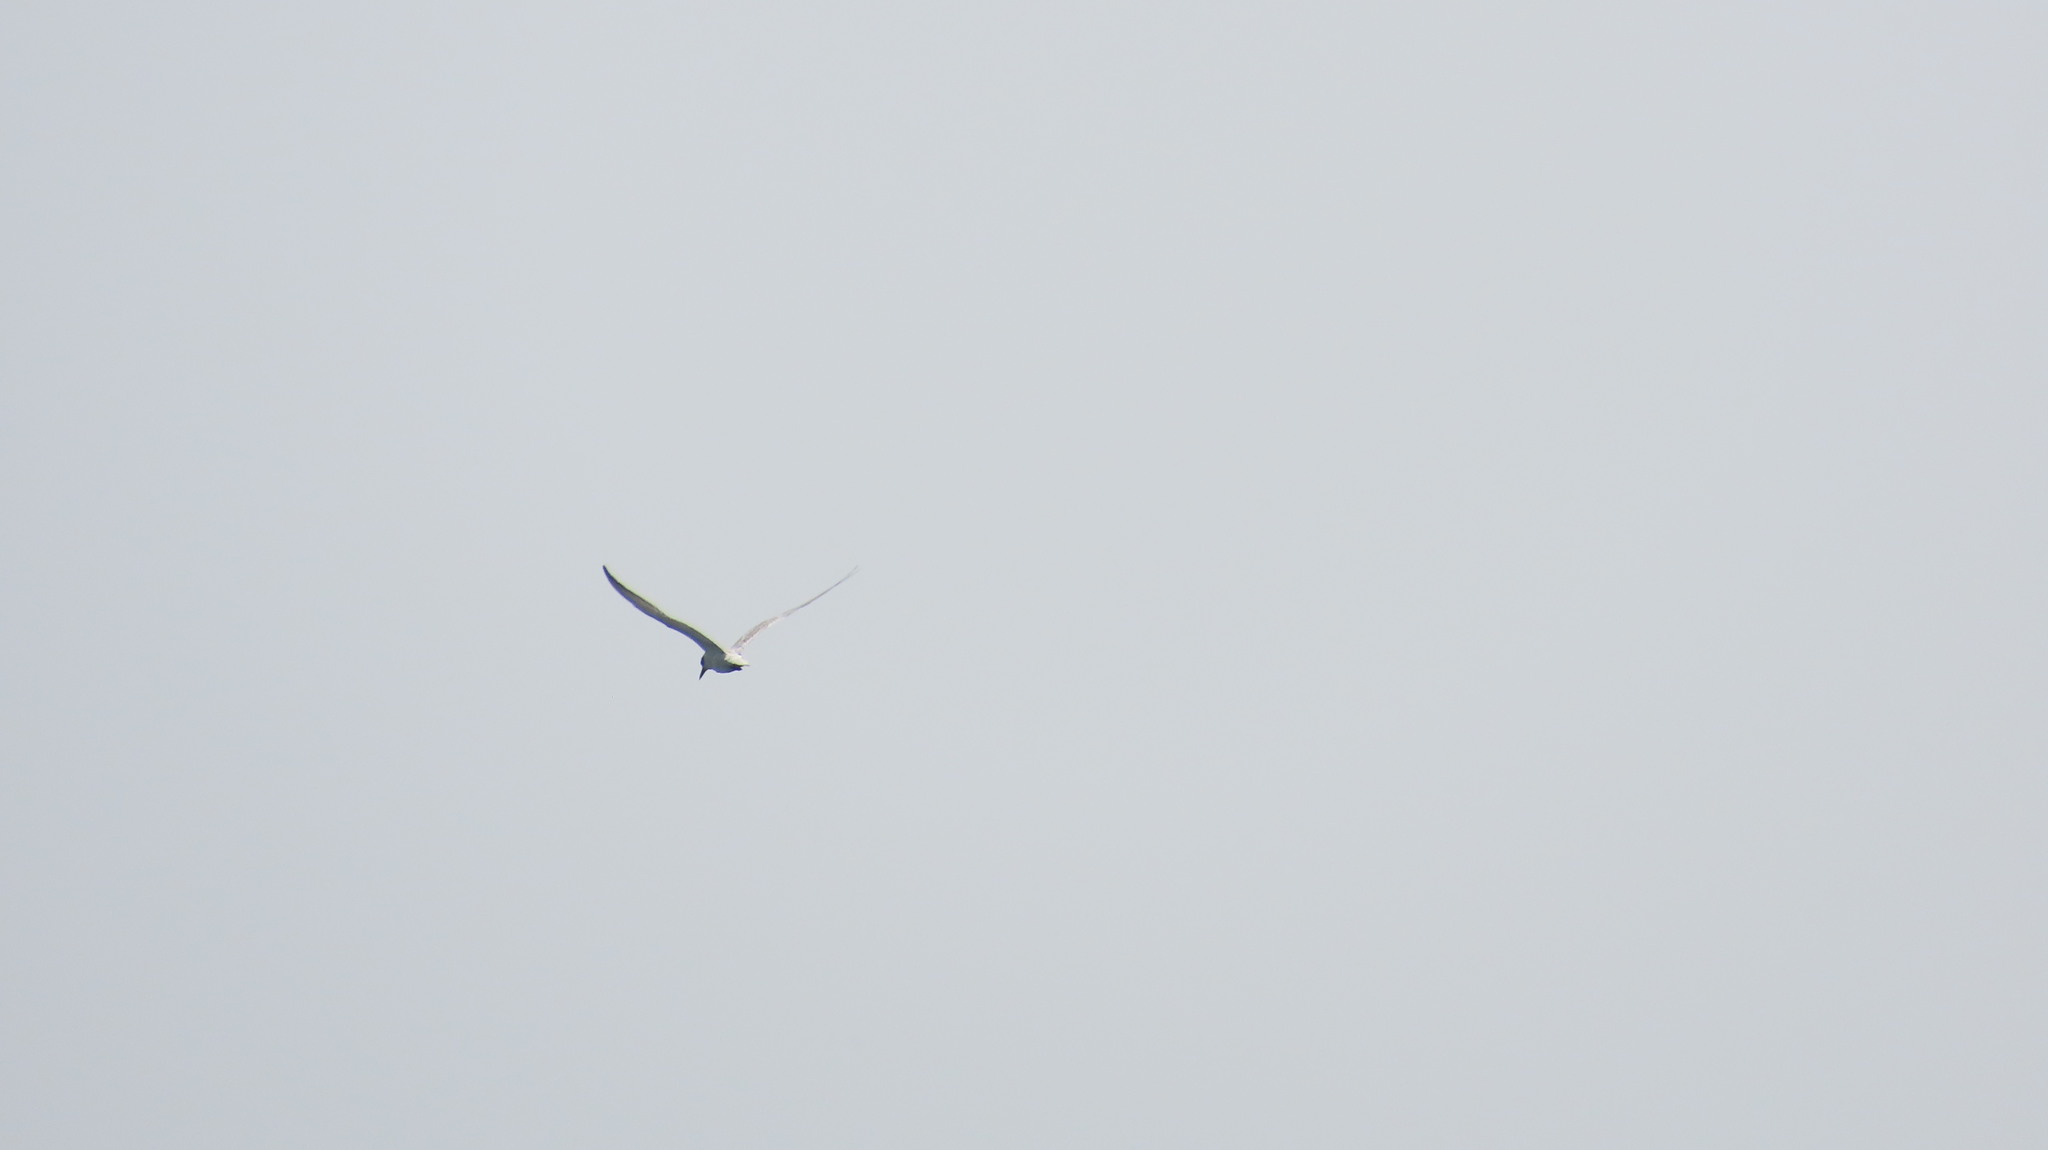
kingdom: Animalia
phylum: Chordata
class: Aves
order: Charadriiformes
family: Laridae
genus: Chlidonias
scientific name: Chlidonias hybrida
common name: Whiskered tern
